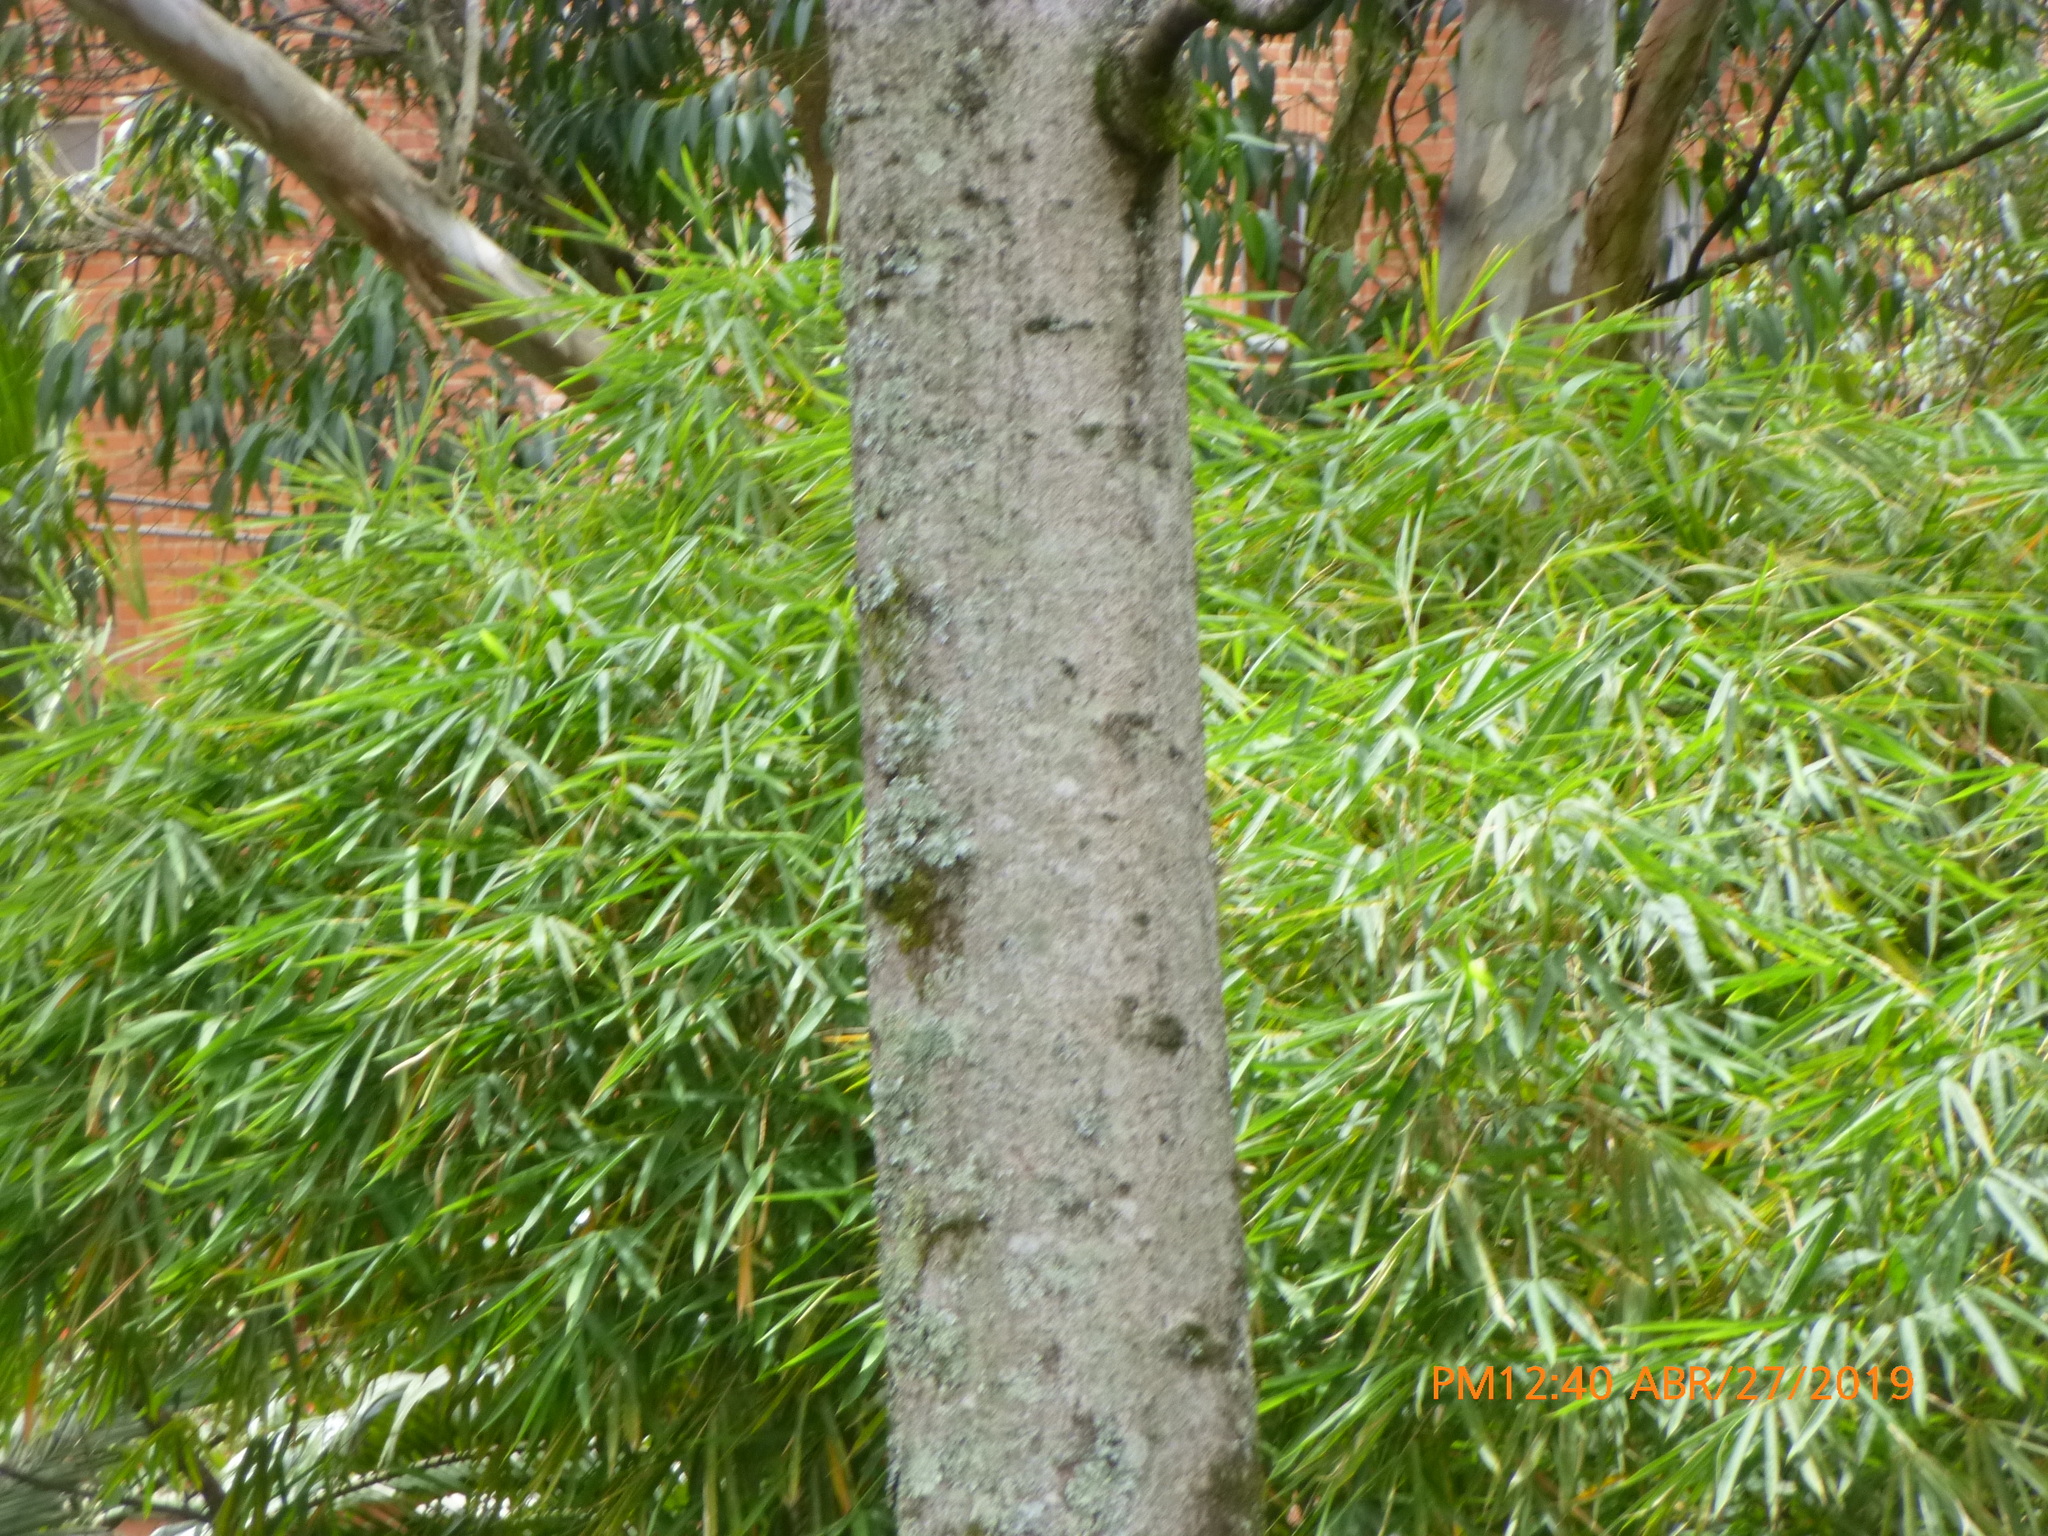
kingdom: Plantae
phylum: Tracheophyta
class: Magnoliopsida
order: Malvales
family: Malvaceae
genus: Ochroma
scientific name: Ochroma pyramidale
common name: Balsa
